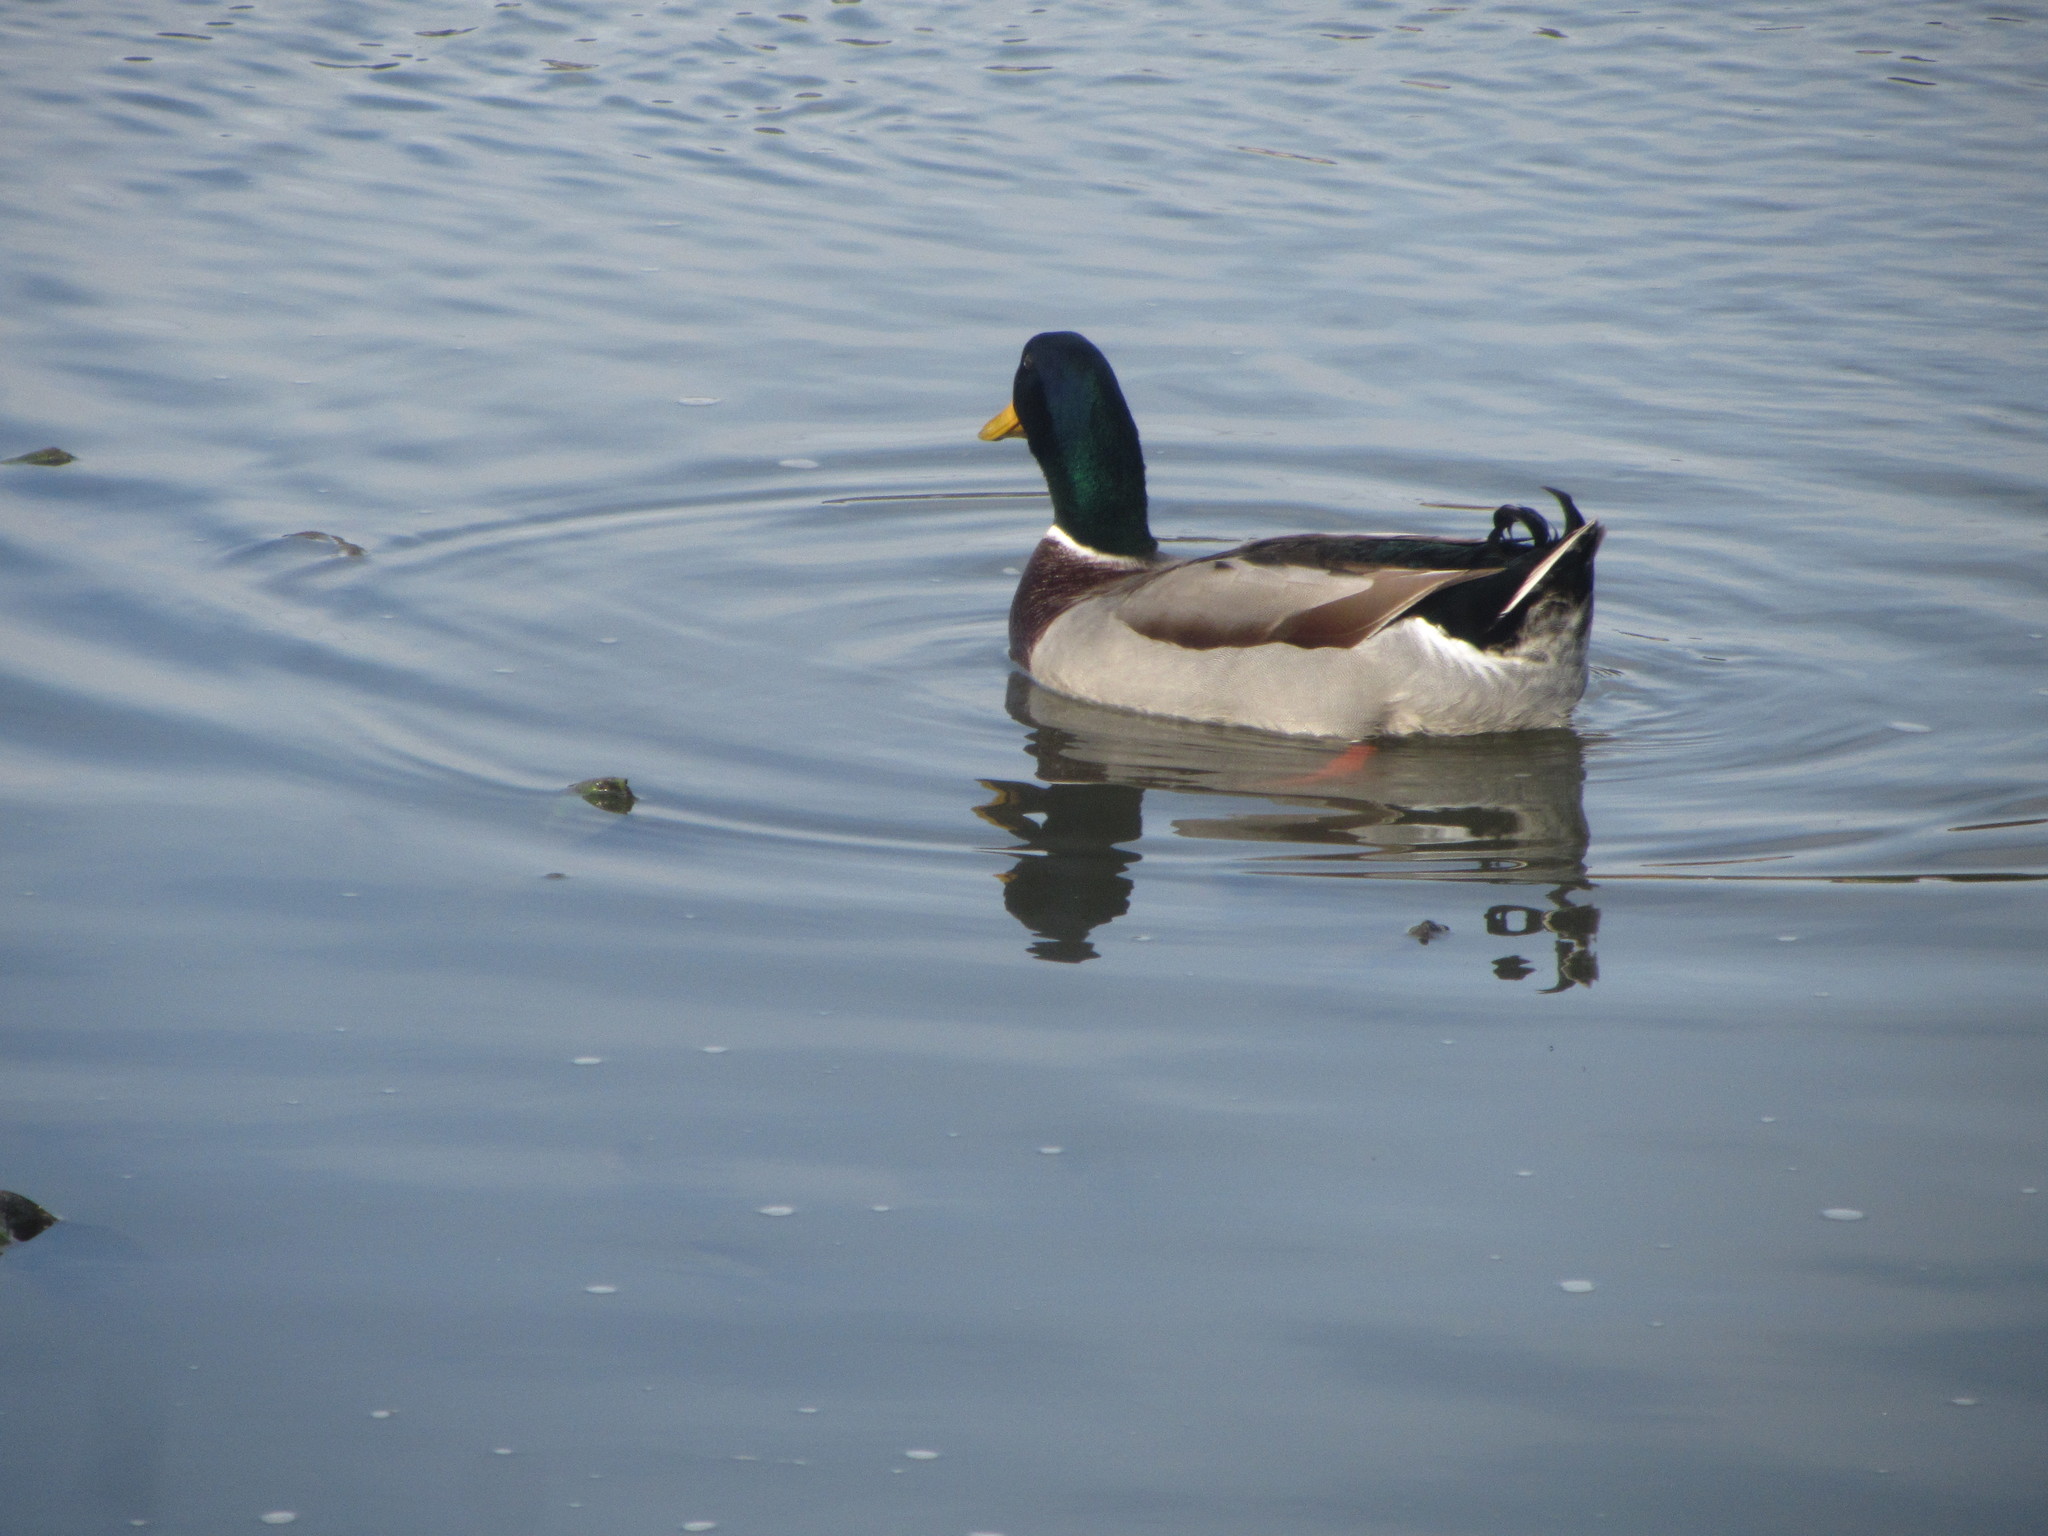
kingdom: Animalia
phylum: Chordata
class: Aves
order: Anseriformes
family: Anatidae
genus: Anas
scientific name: Anas platyrhynchos
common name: Mallard
